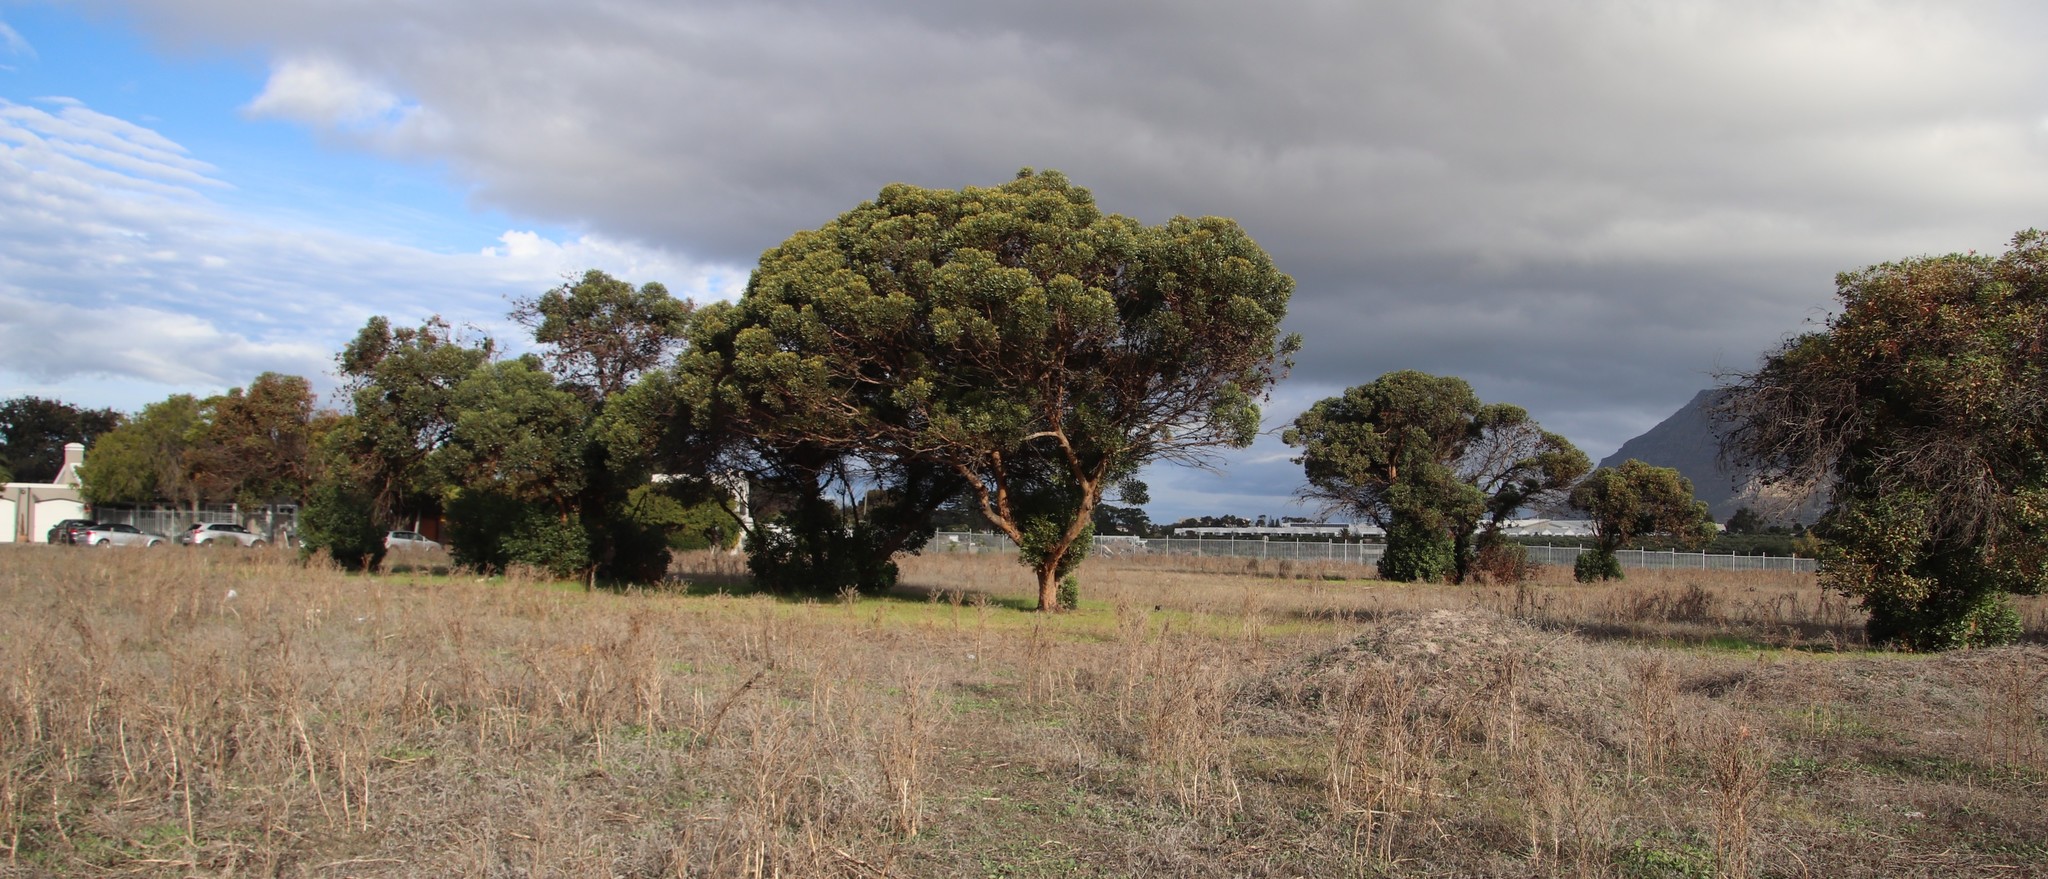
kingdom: Plantae
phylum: Tracheophyta
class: Magnoliopsida
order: Myrtales
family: Myrtaceae
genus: Eucalyptus
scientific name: Eucalyptus conferruminata
